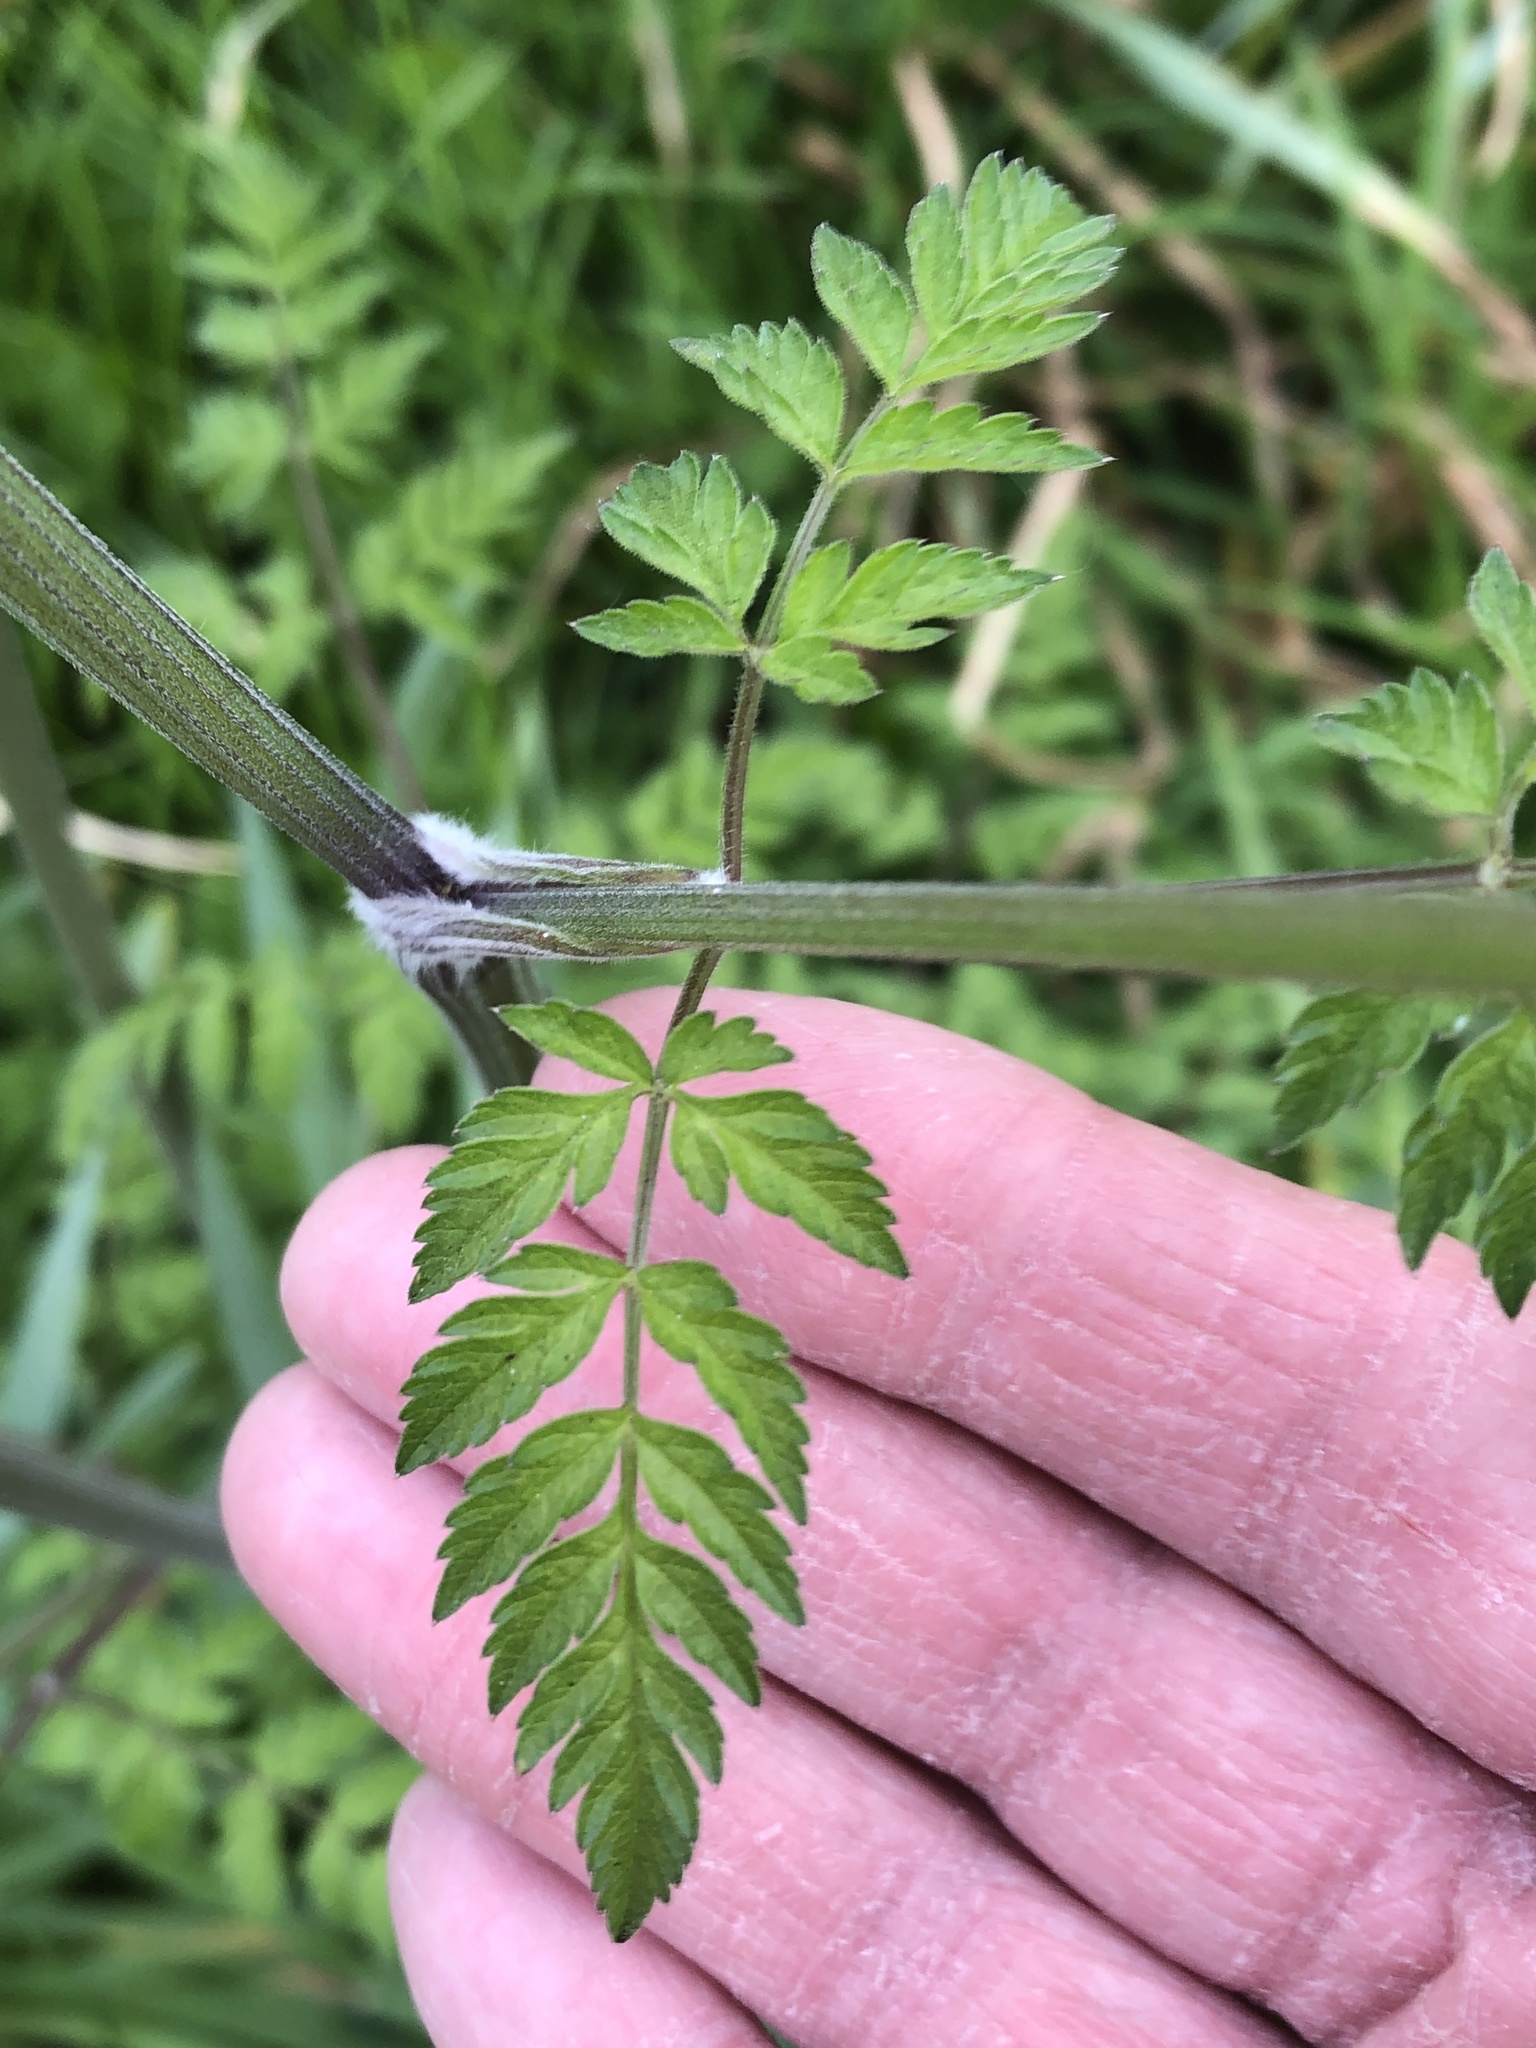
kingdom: Plantae
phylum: Tracheophyta
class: Magnoliopsida
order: Apiales
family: Apiaceae
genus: Anthriscus
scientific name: Anthriscus sylvestris
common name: Cow parsley
